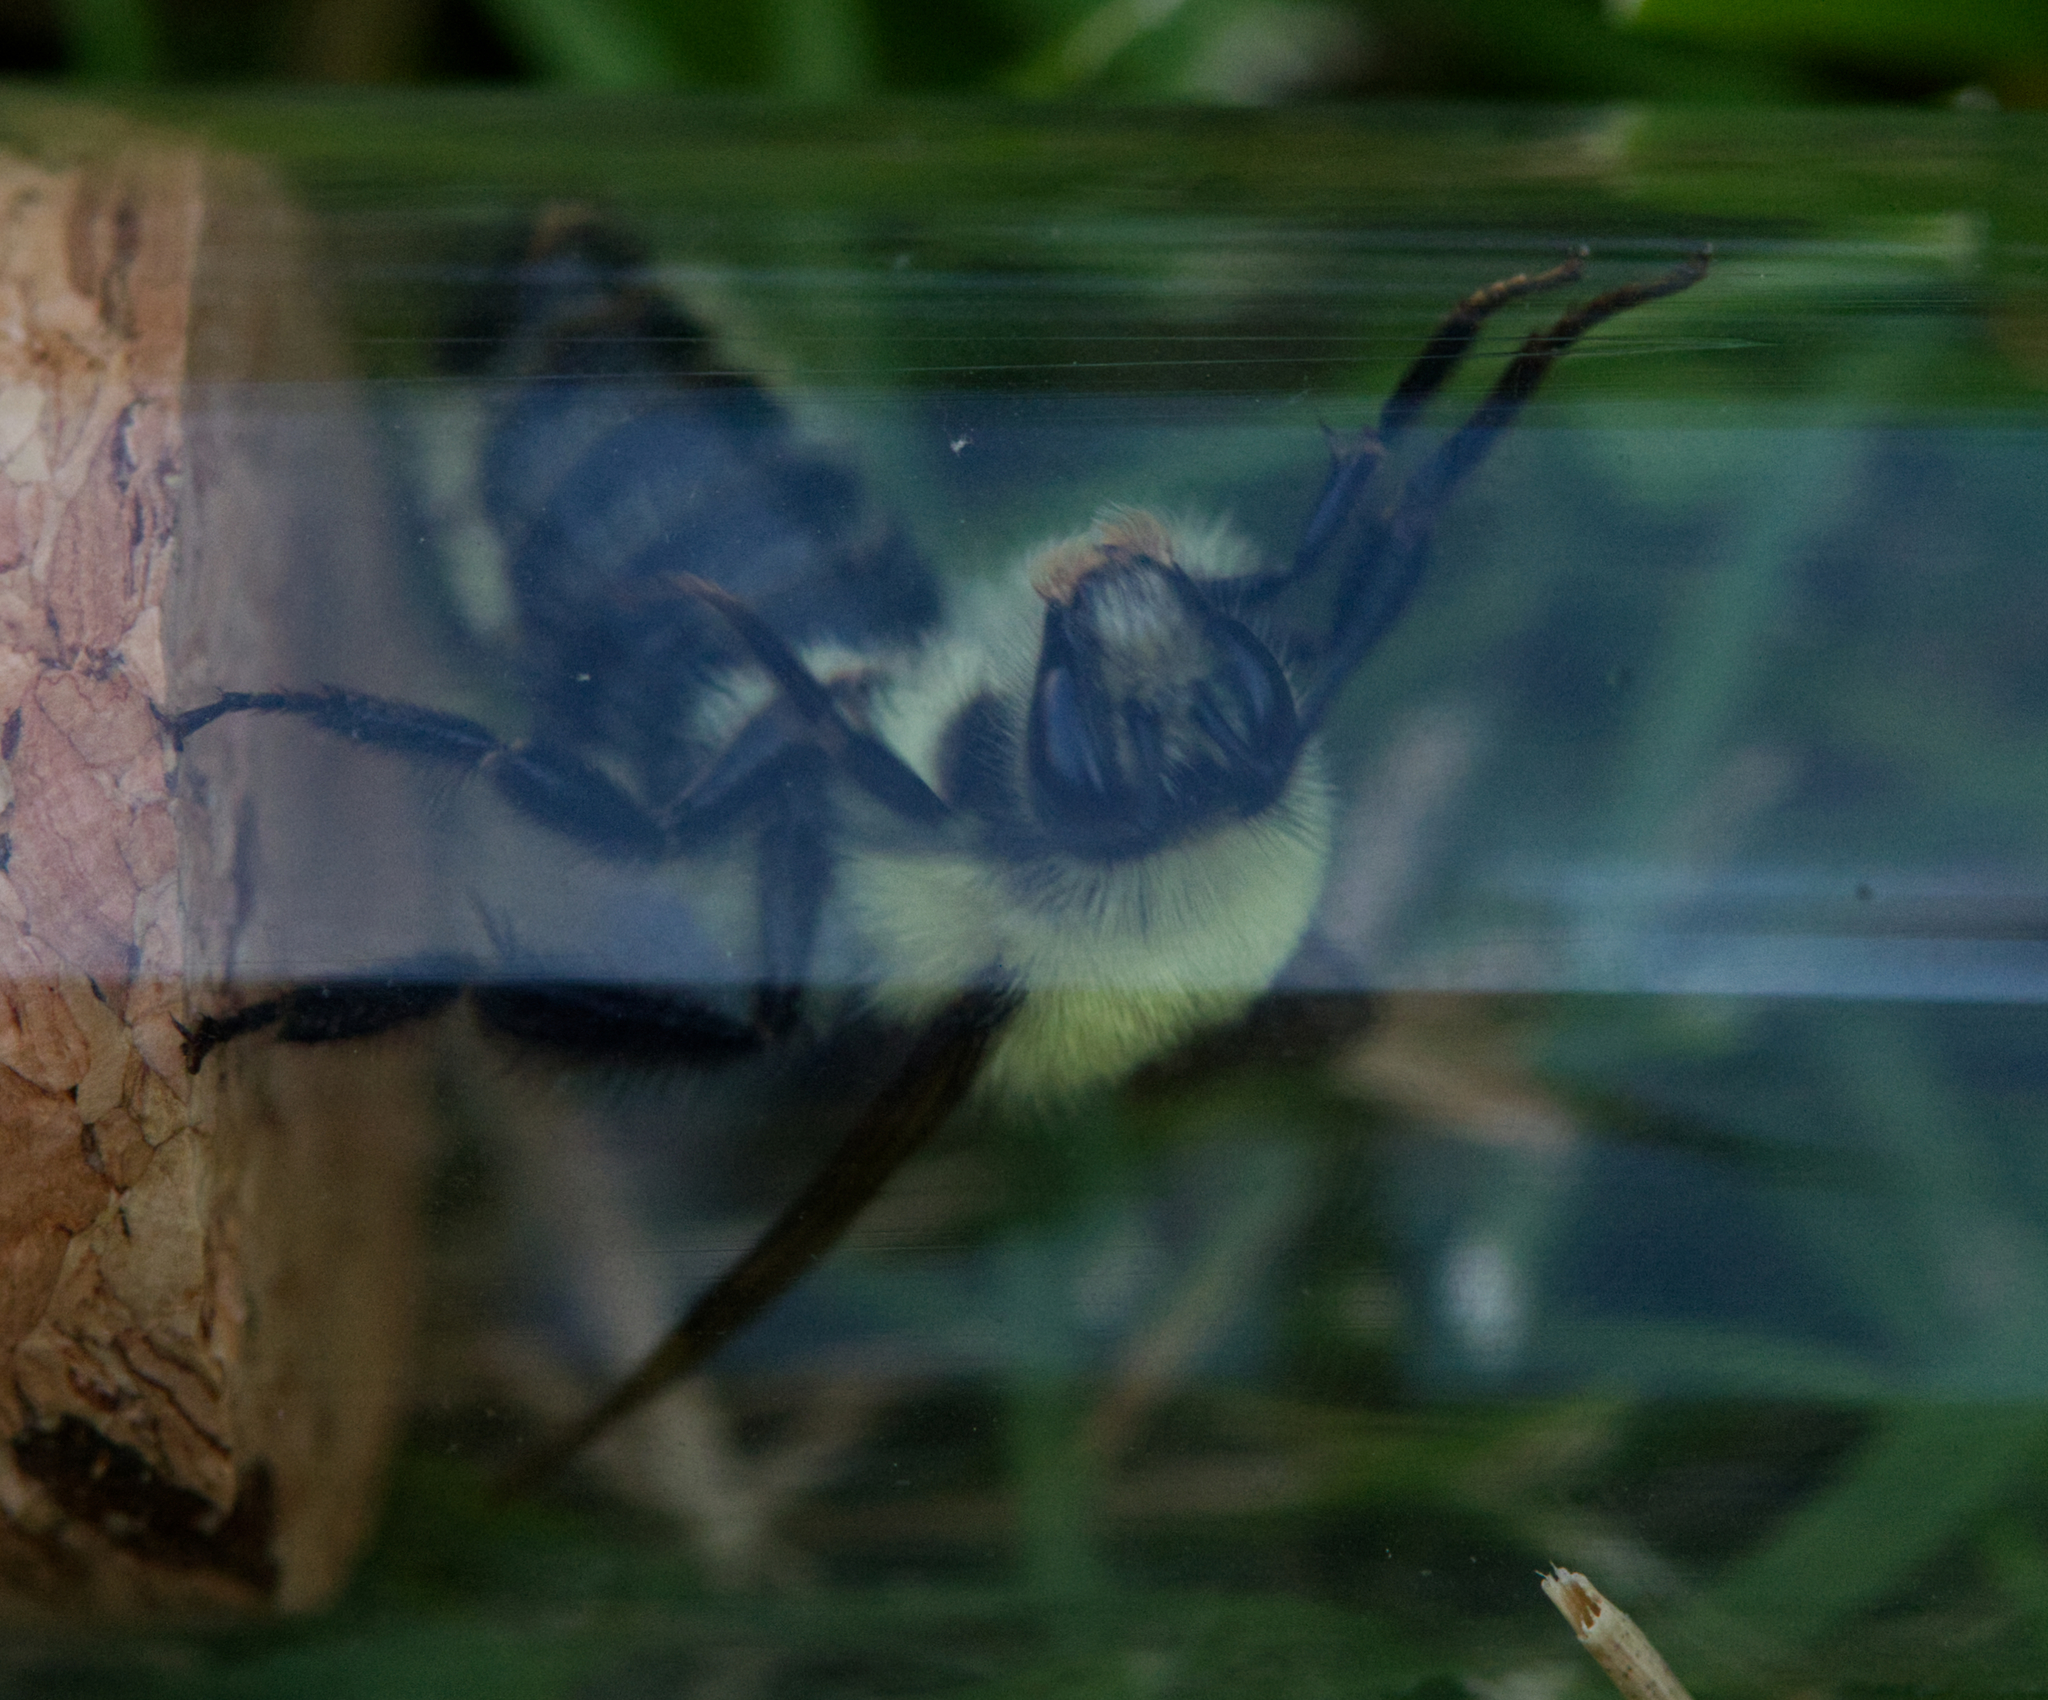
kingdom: Animalia
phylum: Arthropoda
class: Insecta
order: Hymenoptera
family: Apidae
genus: Bombus
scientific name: Bombus bimaculatus
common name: Two-spotted bumble bee
